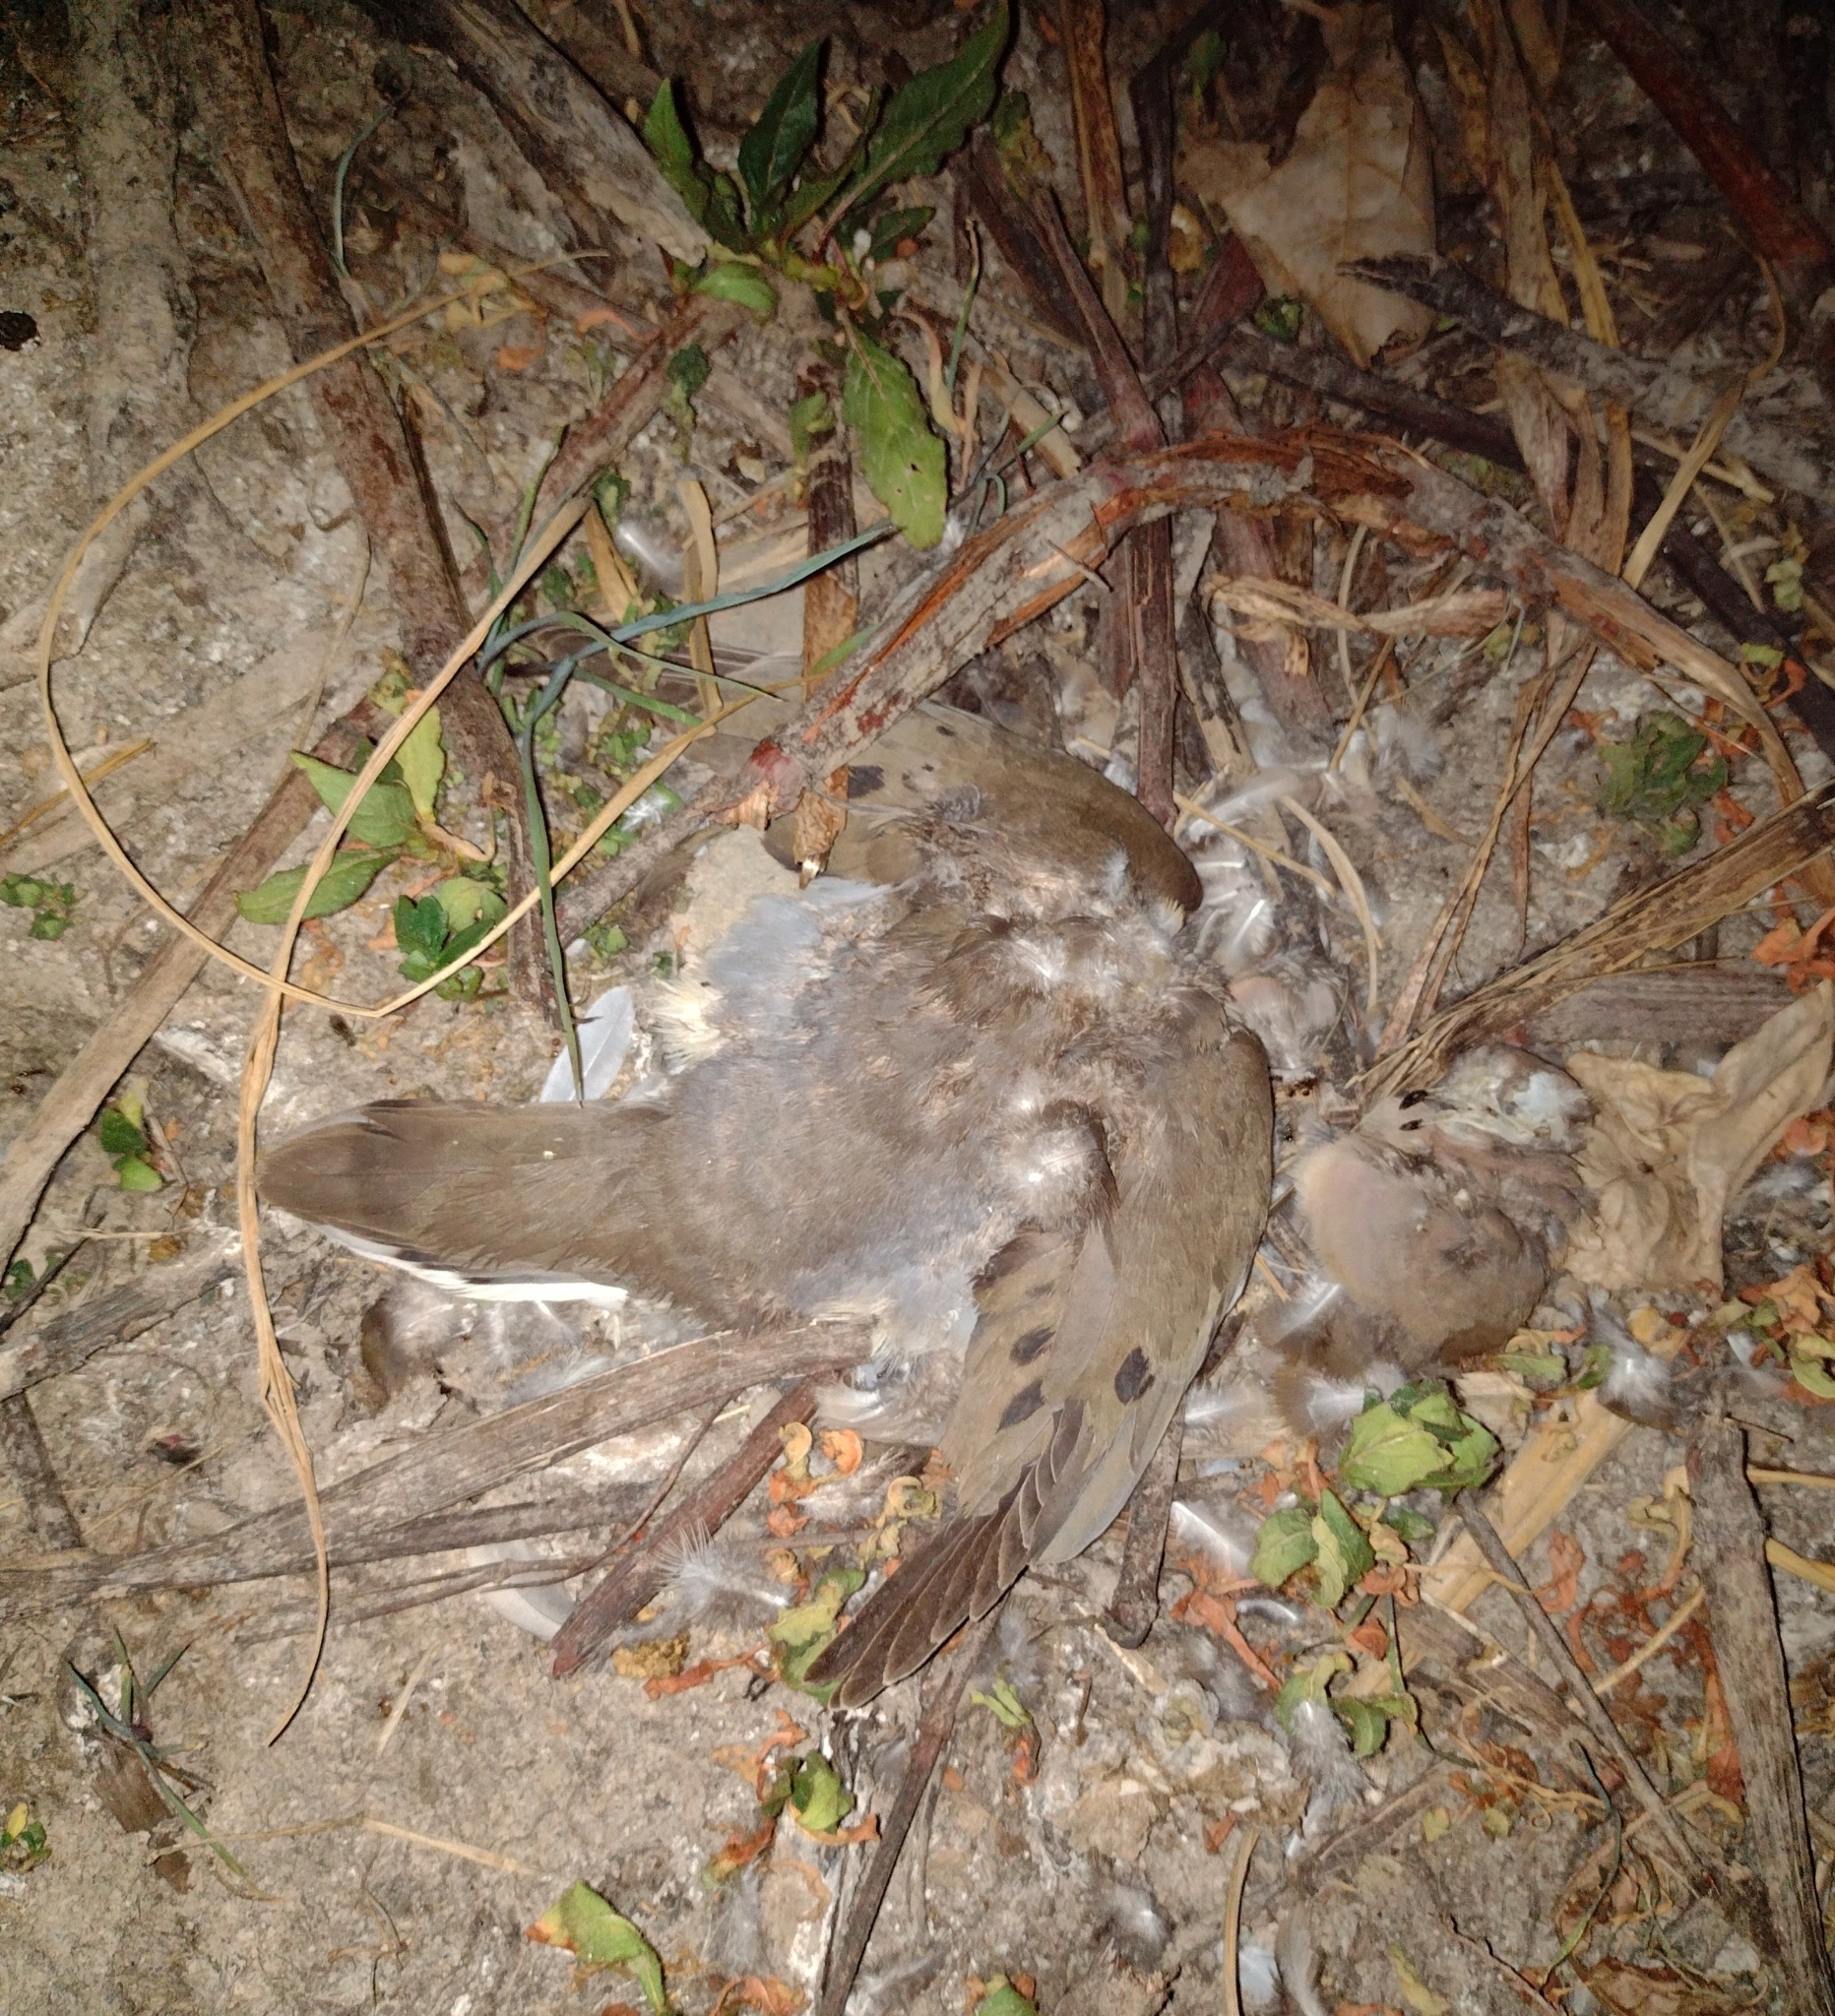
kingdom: Animalia
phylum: Chordata
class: Aves
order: Columbiformes
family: Columbidae
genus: Zenaida
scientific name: Zenaida auriculata
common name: Eared dove
